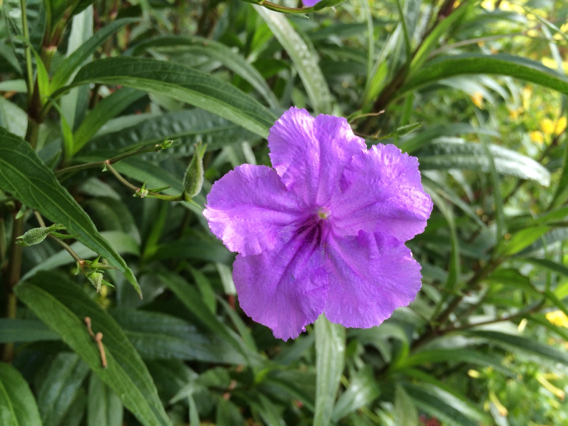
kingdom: Plantae
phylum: Tracheophyta
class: Magnoliopsida
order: Lamiales
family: Acanthaceae
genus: Ruellia
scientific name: Ruellia simplex
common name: Softseed wild petunia
